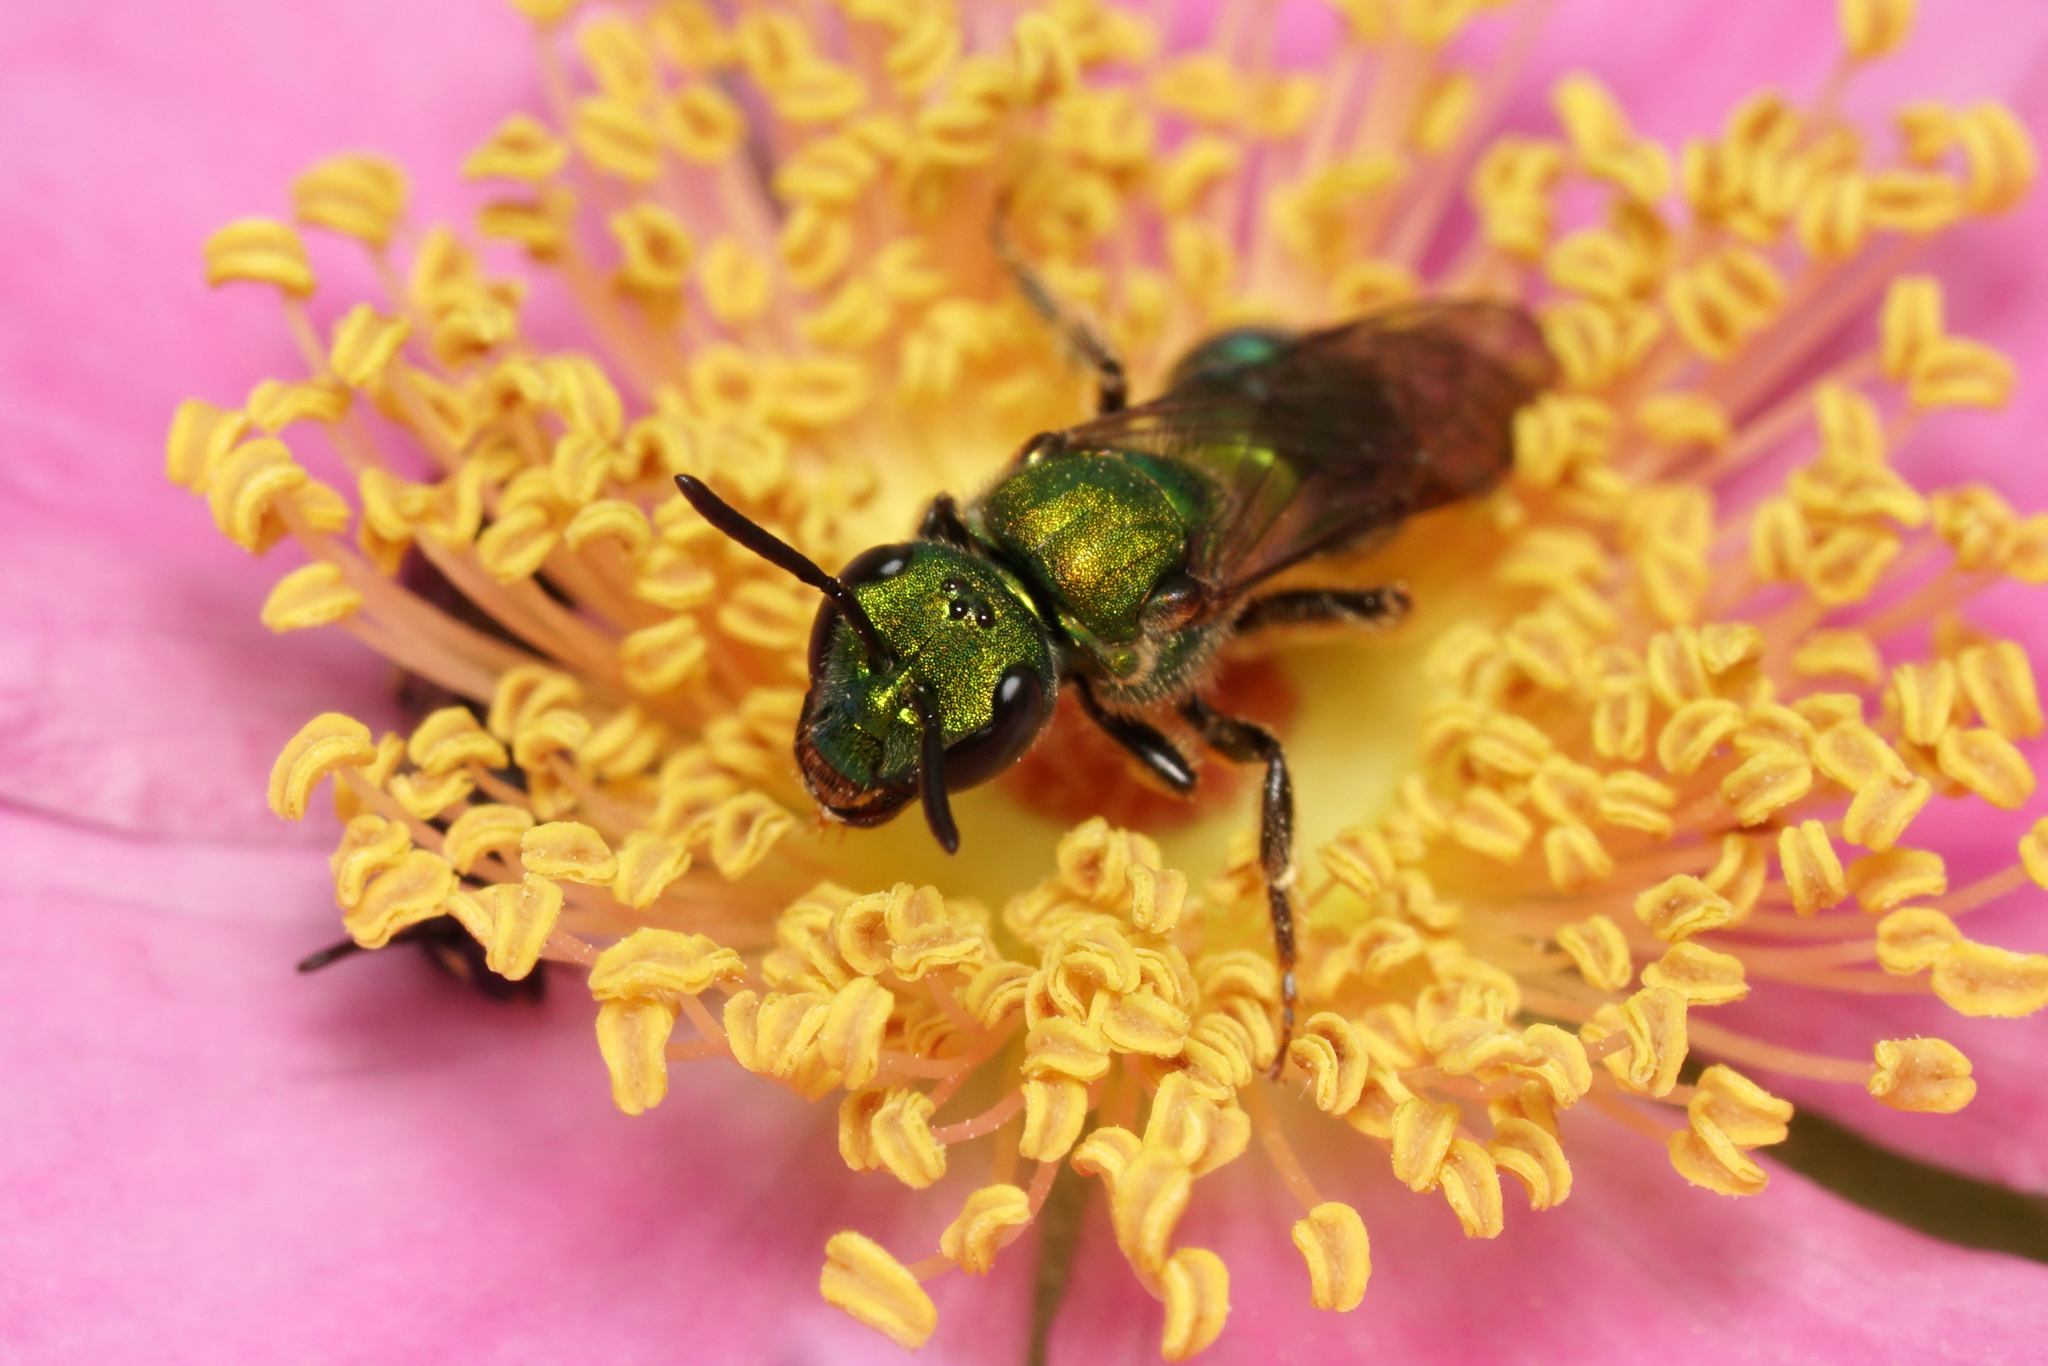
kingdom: Animalia
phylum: Arthropoda
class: Insecta
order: Hymenoptera
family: Halictidae
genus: Augochlora
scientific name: Augochlora pura
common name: Pure green sweat bee
